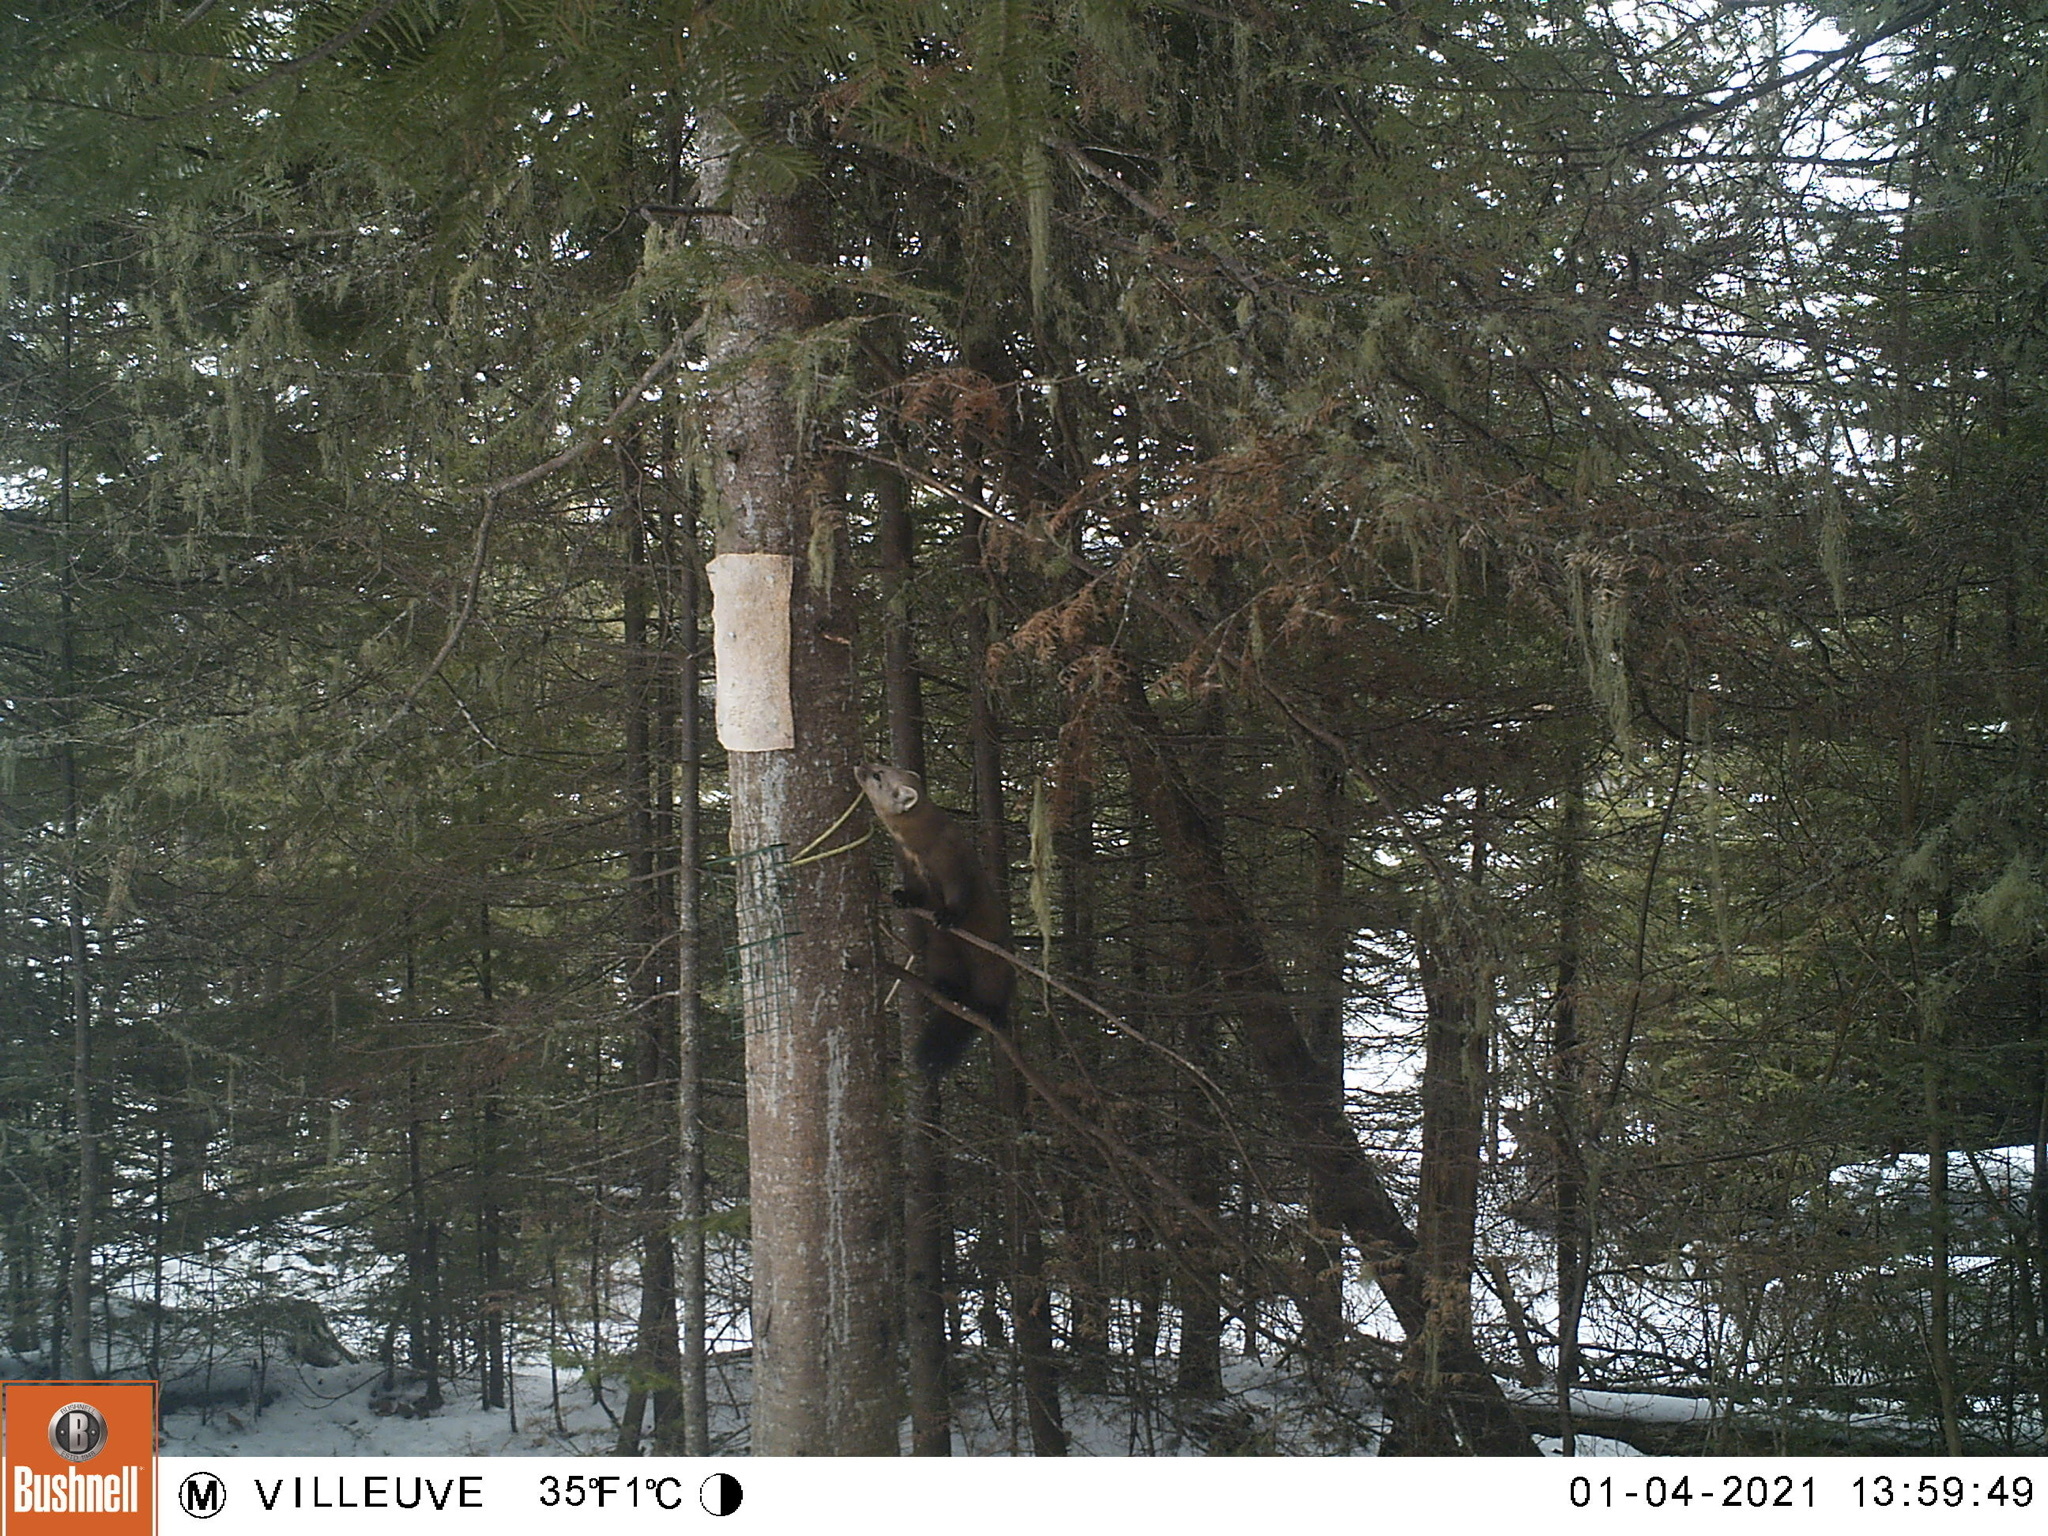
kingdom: Animalia
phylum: Chordata
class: Mammalia
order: Carnivora
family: Mustelidae
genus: Martes
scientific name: Martes americana
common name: American marten
